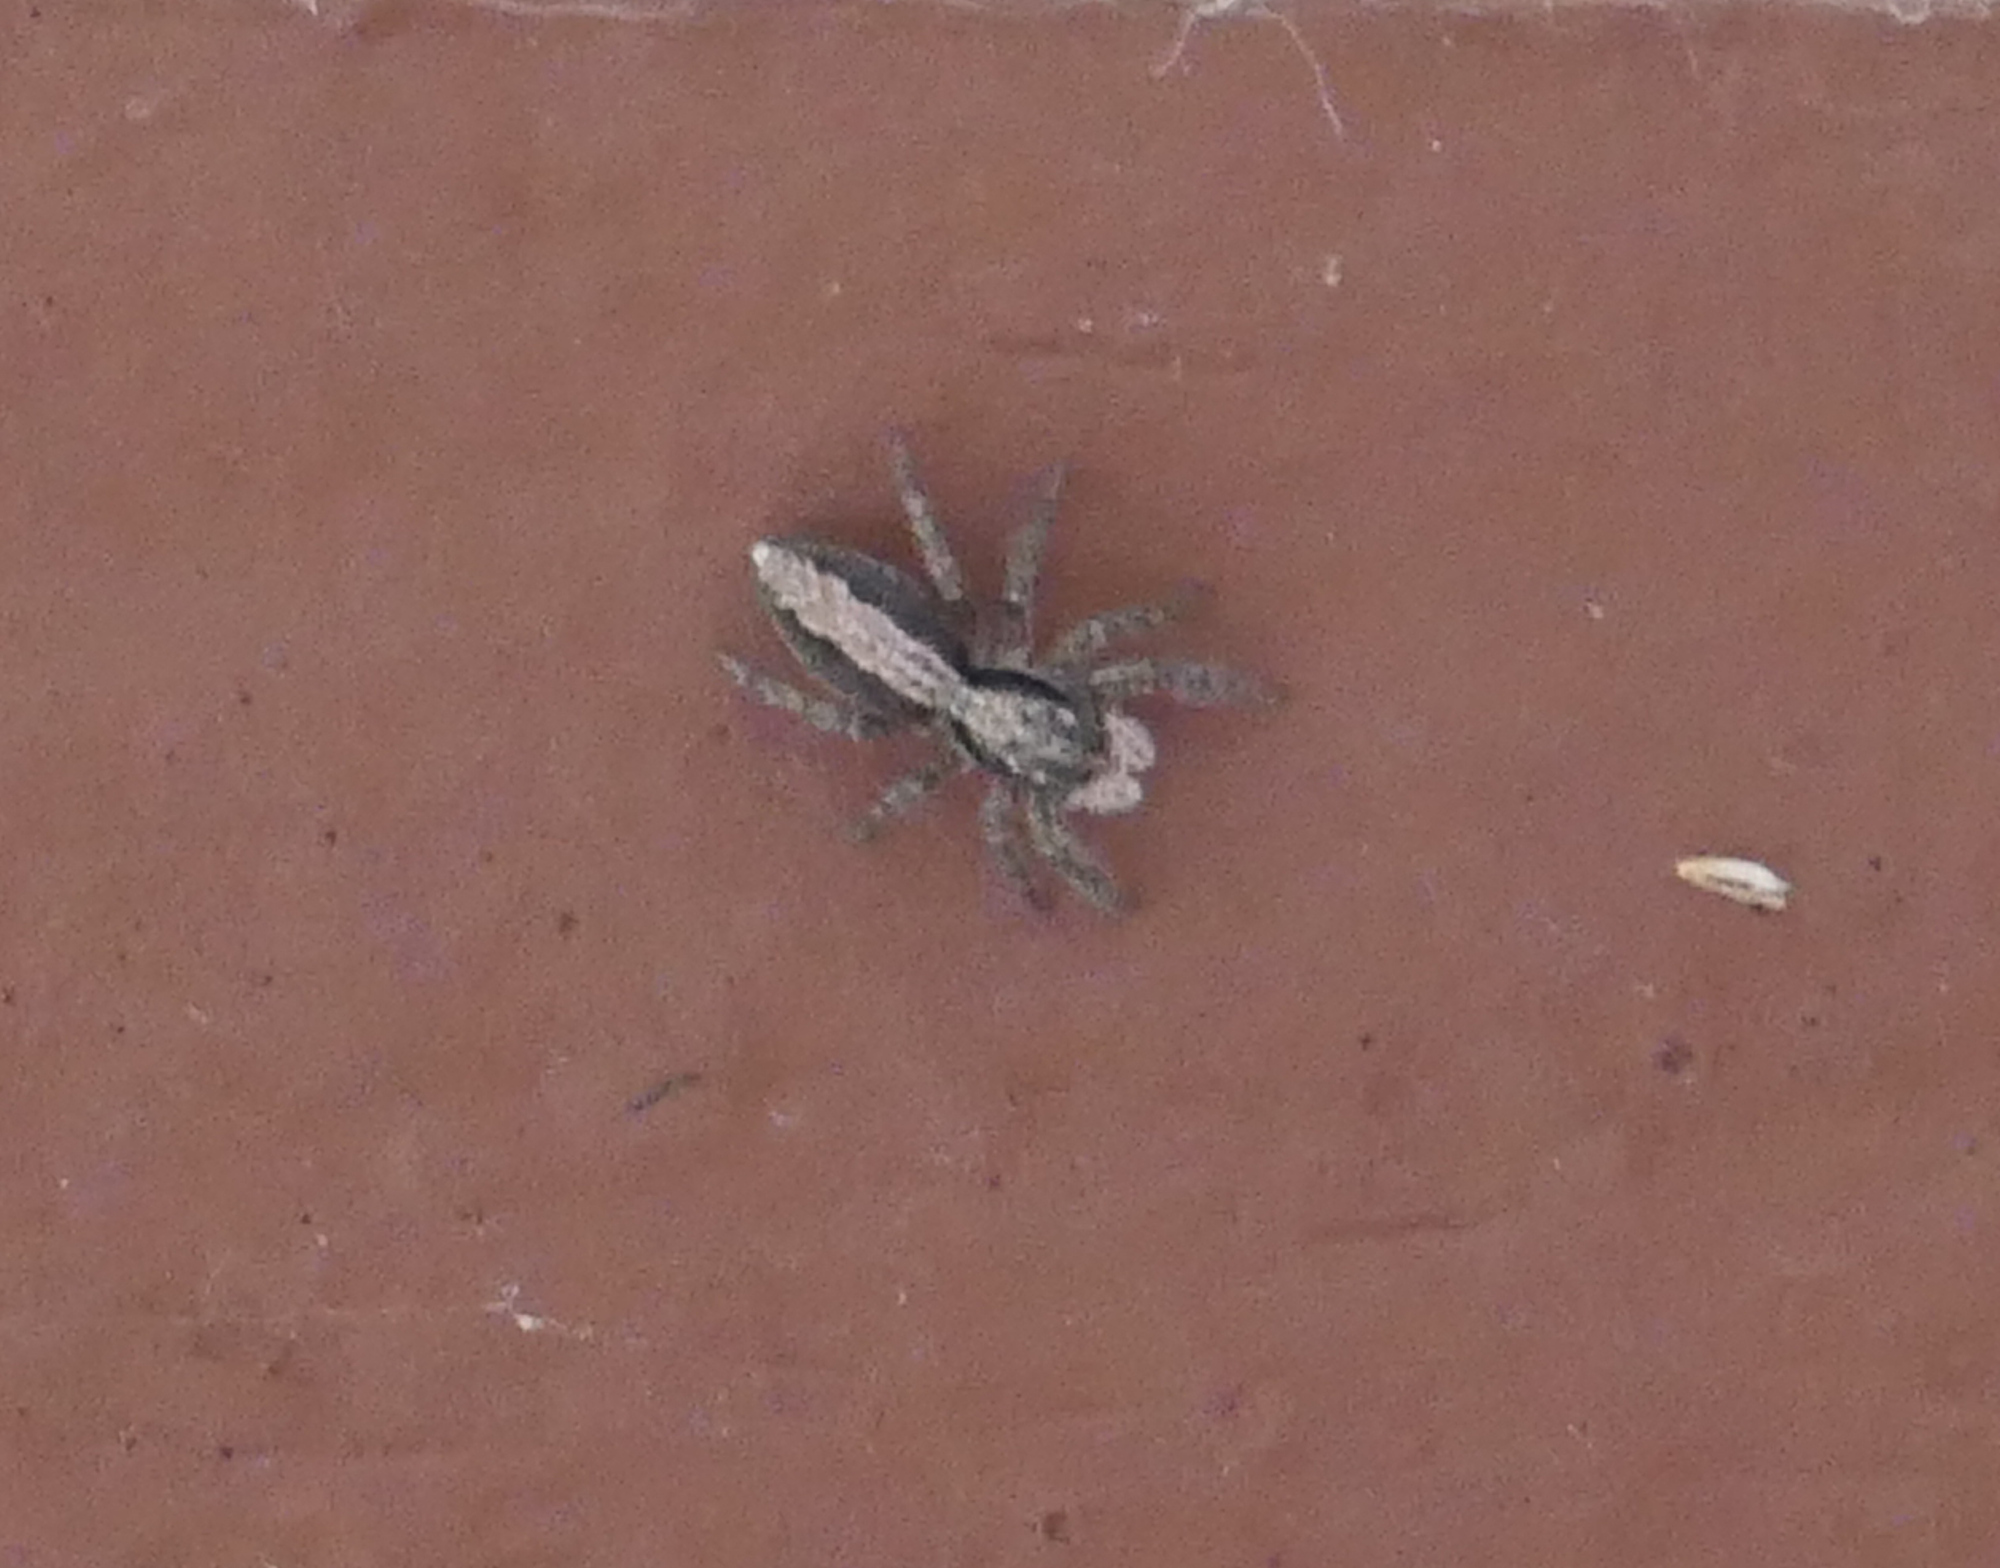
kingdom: Animalia
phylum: Arthropoda
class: Arachnida
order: Araneae
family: Salticidae
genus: Platycryptus
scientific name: Platycryptus californicus
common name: Jumping spiders
